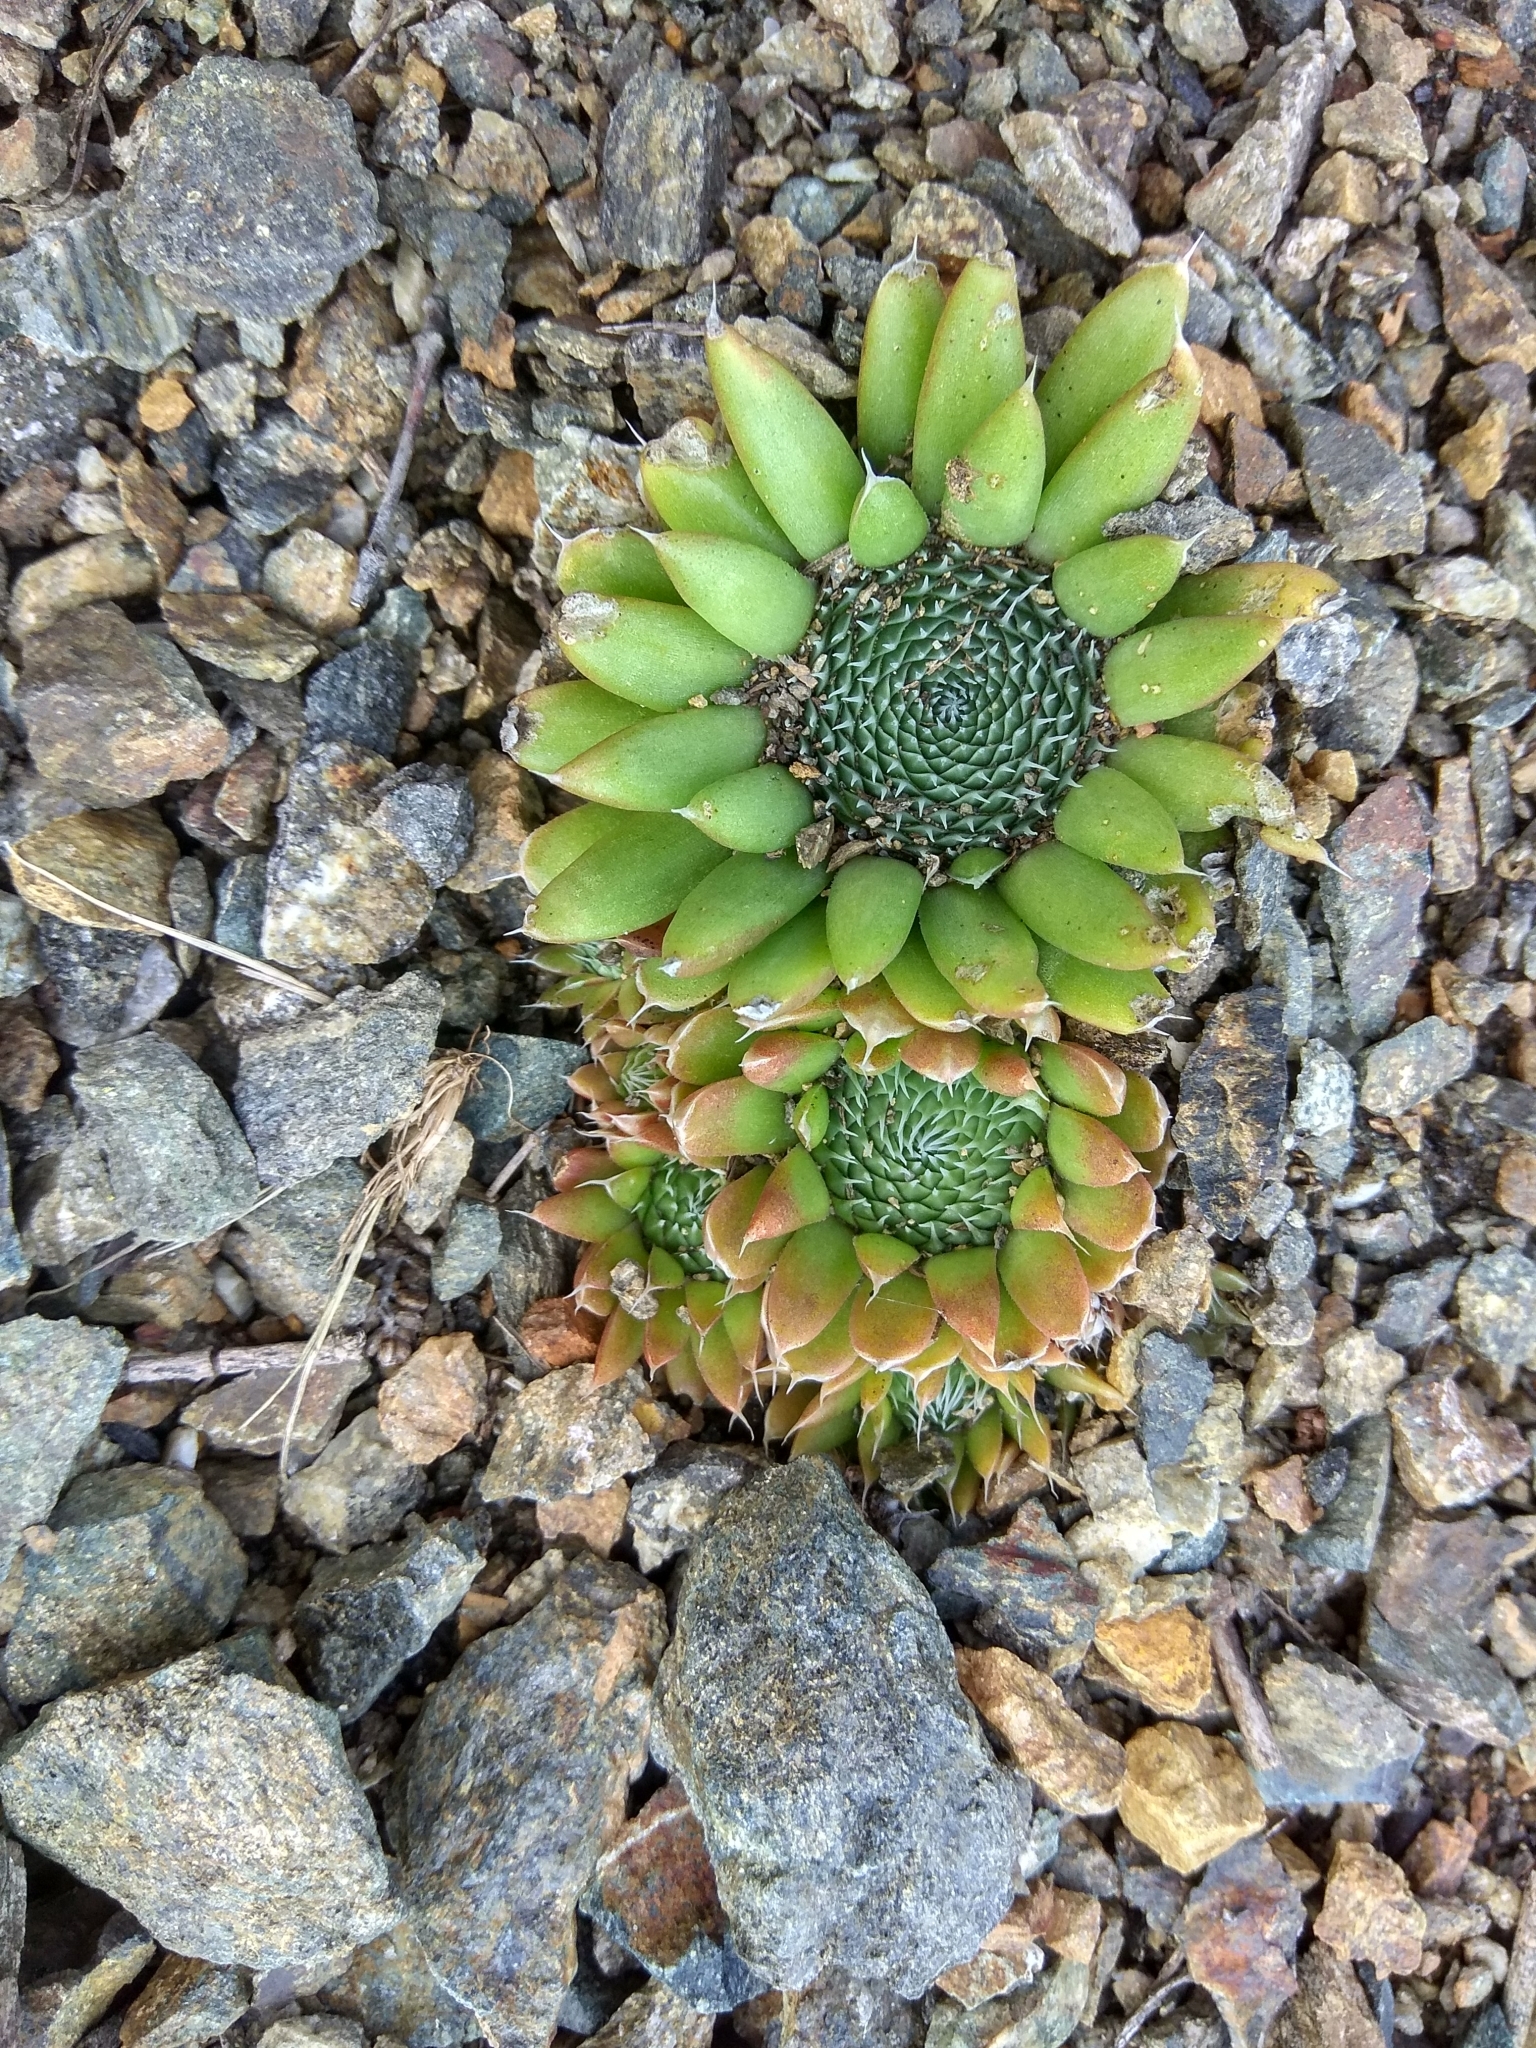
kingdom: Plantae
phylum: Tracheophyta
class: Magnoliopsida
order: Saxifragales
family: Crassulaceae
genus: Orostachys
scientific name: Orostachys spinosa
